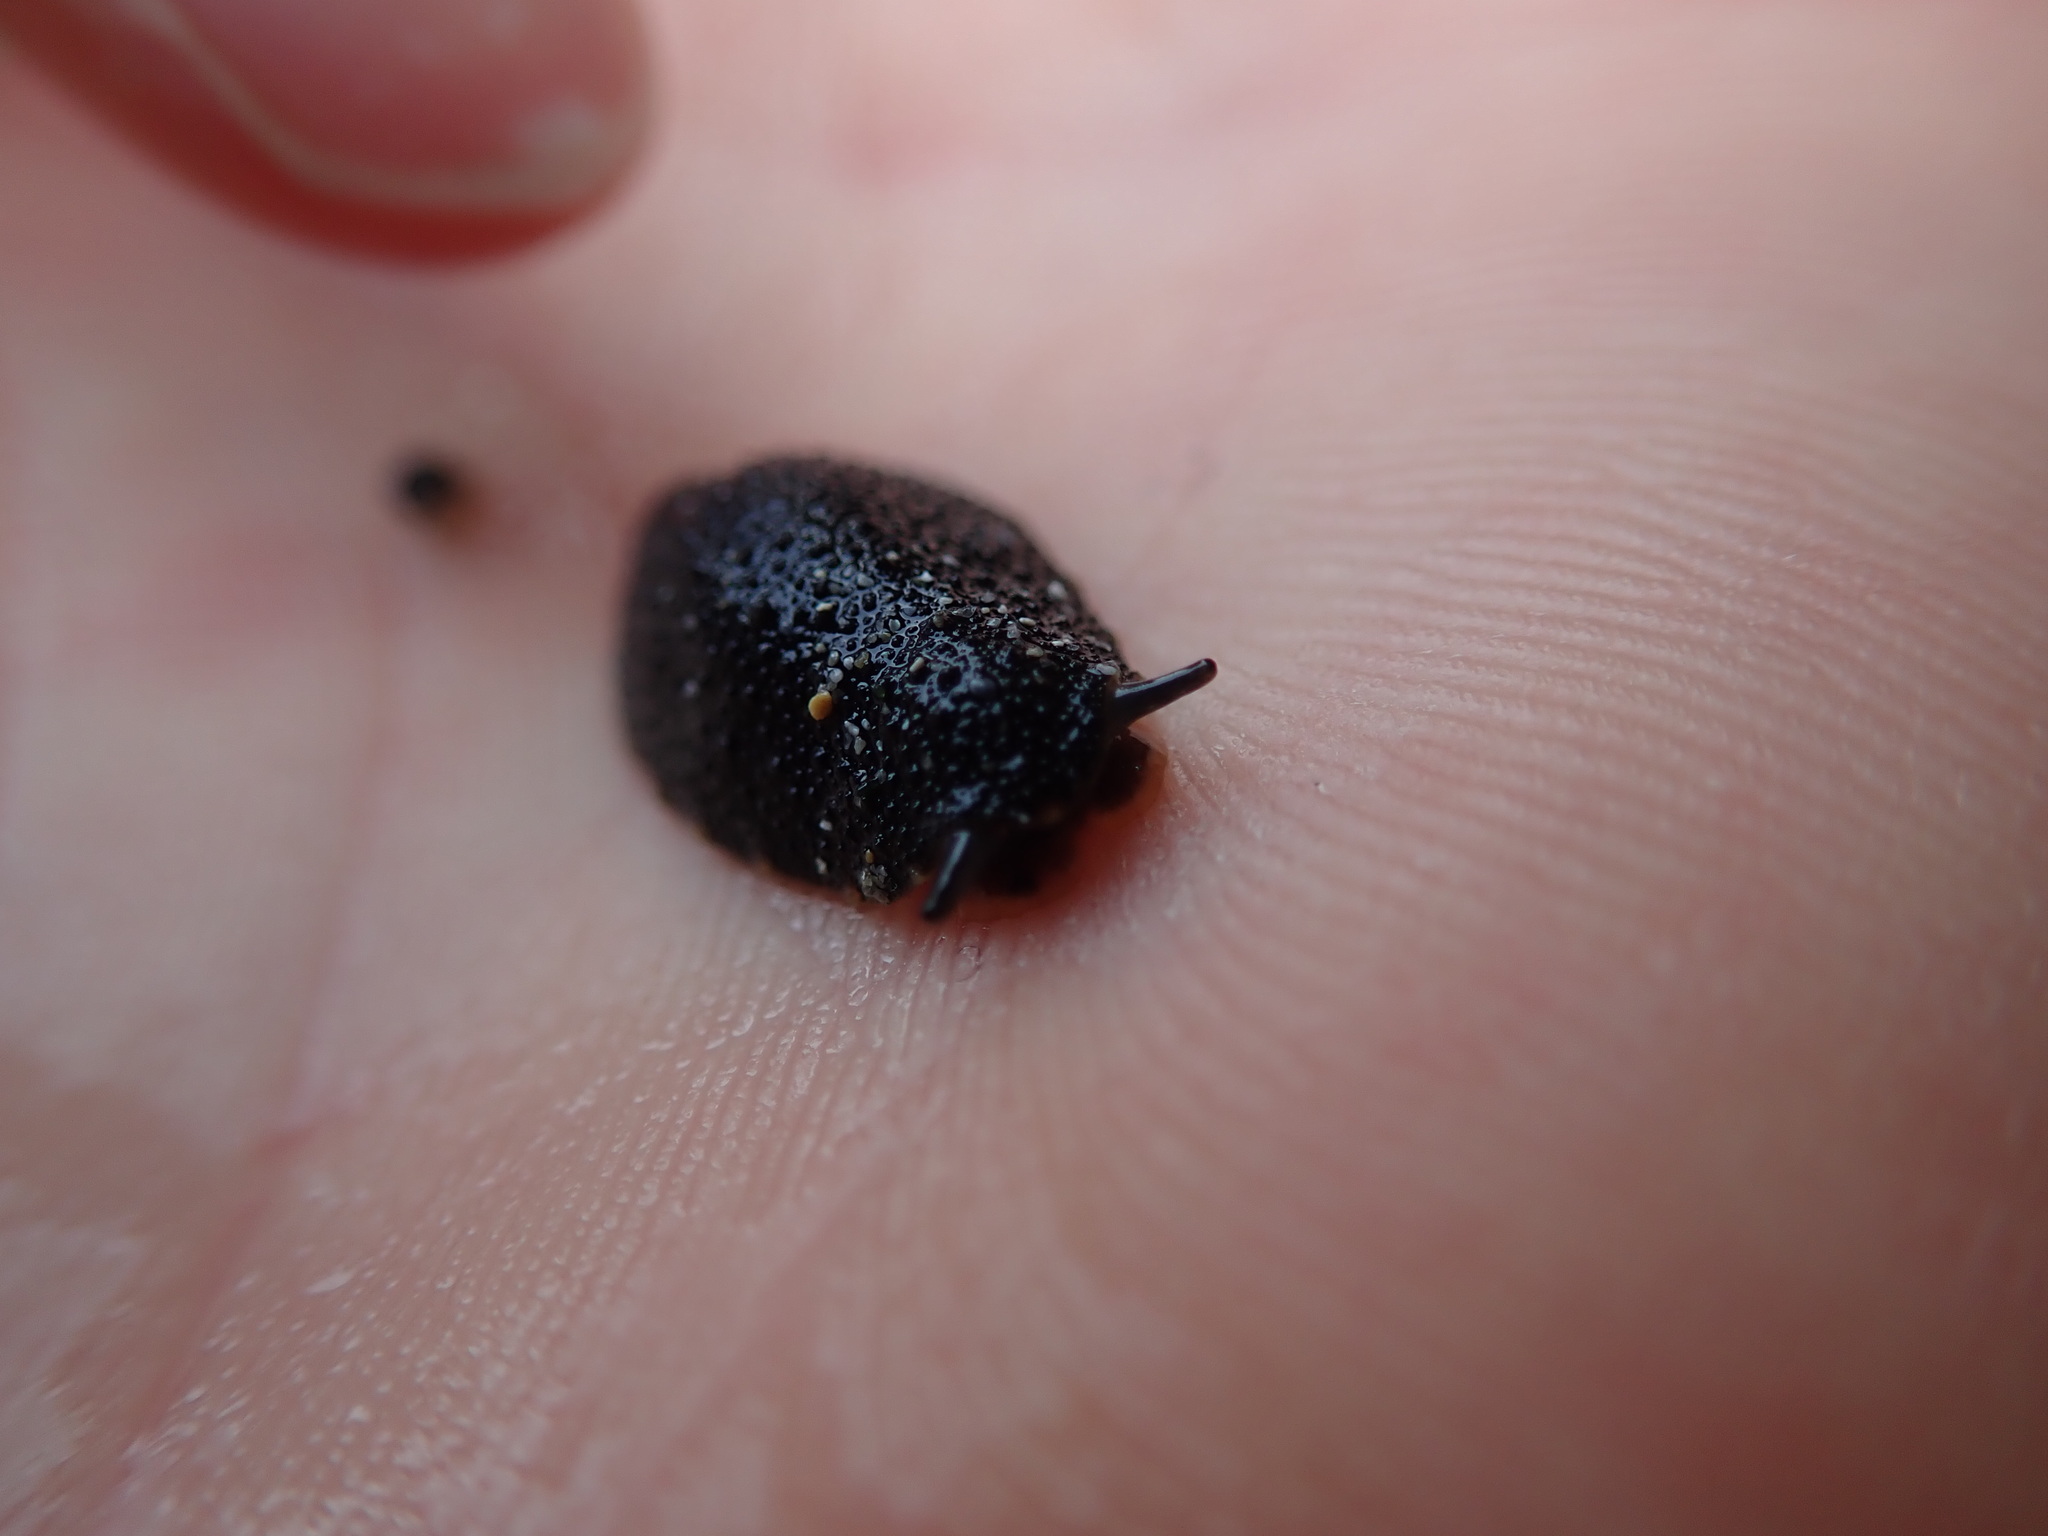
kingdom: Animalia
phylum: Mollusca
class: Gastropoda
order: Systellommatophora
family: Onchidiidae
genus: Onchidella
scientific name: Onchidella nigricans
